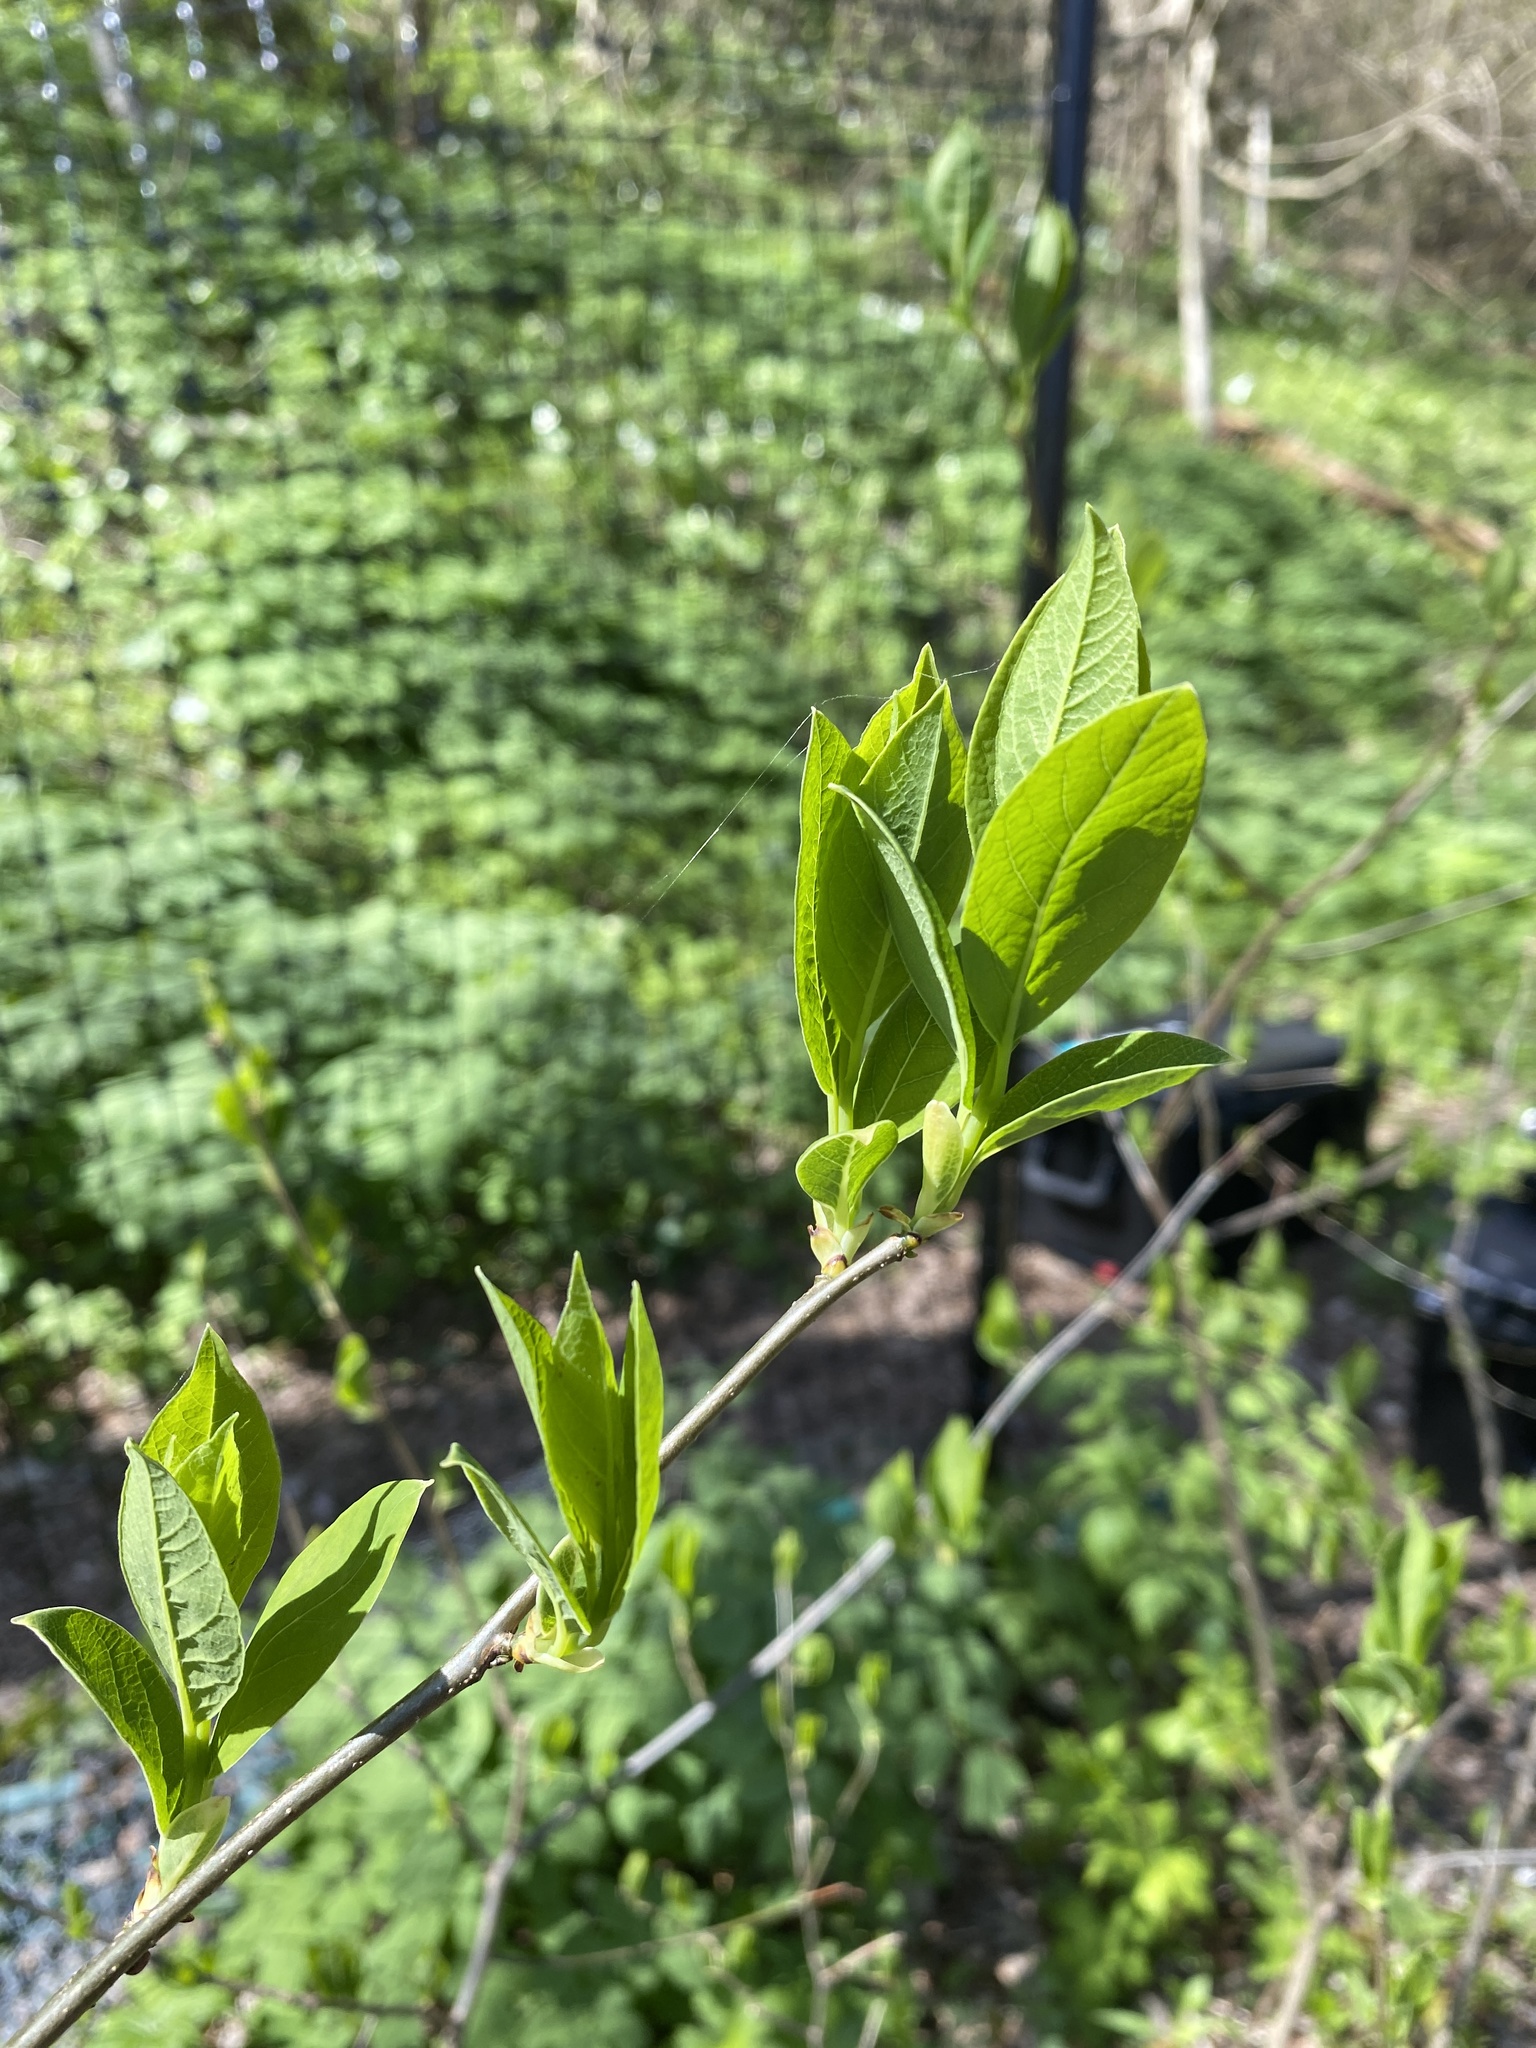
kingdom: Plantae
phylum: Tracheophyta
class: Magnoliopsida
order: Laurales
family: Lauraceae
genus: Lindera
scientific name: Lindera benzoin
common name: Spicebush
